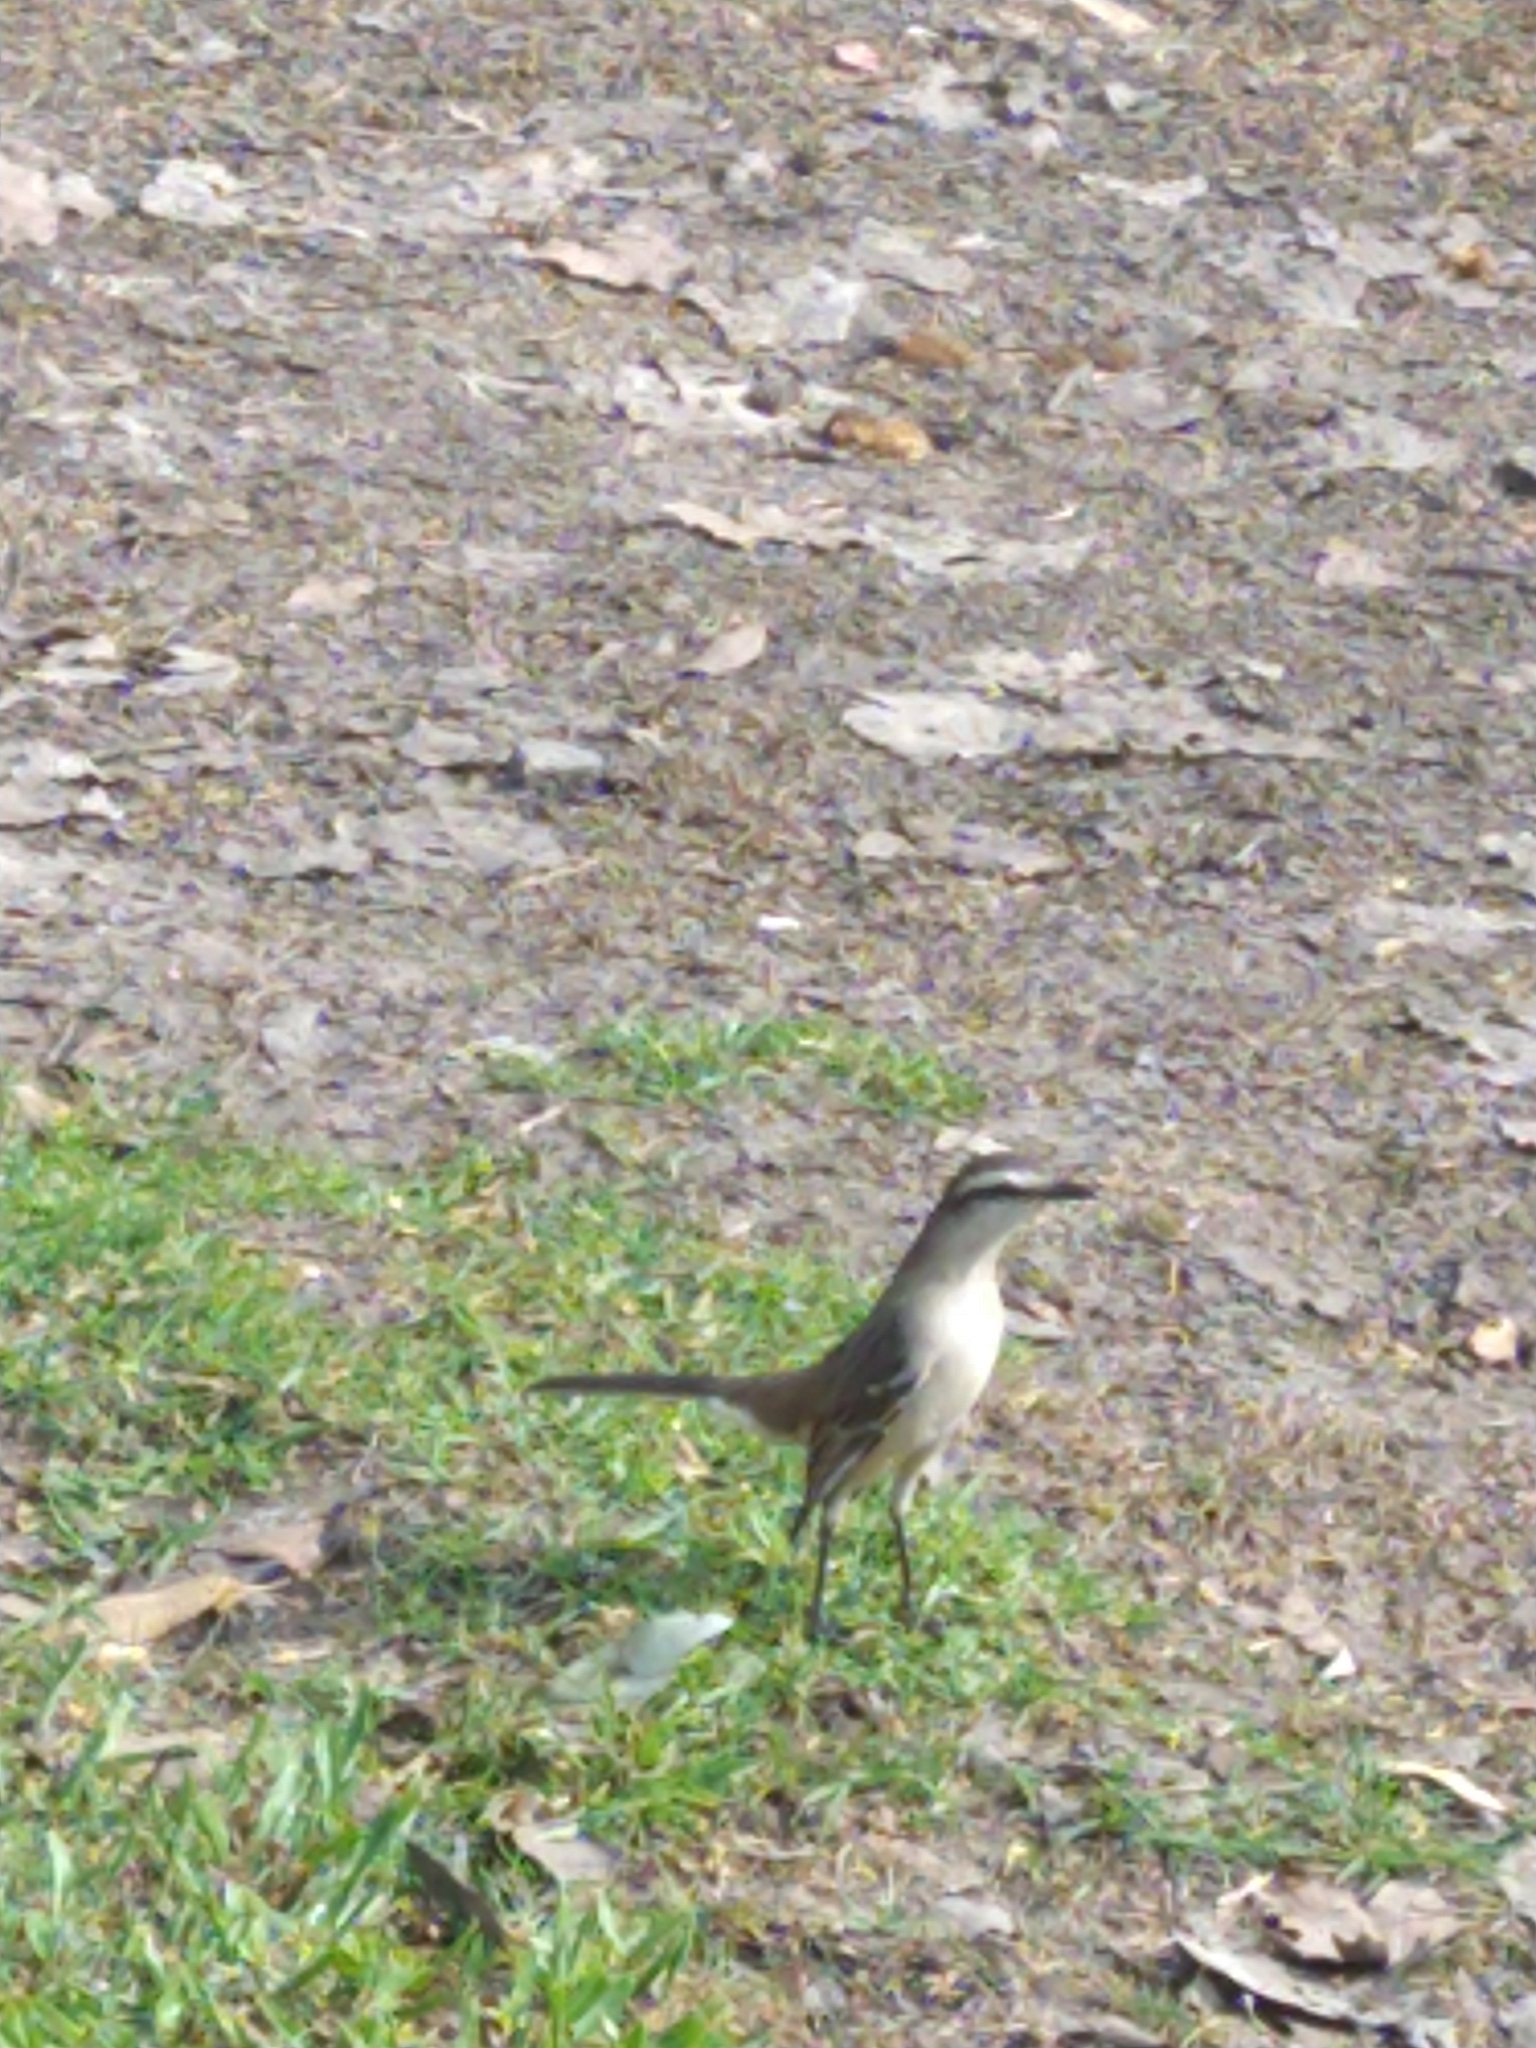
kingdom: Animalia
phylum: Chordata
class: Aves
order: Passeriformes
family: Mimidae
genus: Mimus
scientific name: Mimus saturninus
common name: Chalk-browed mockingbird
